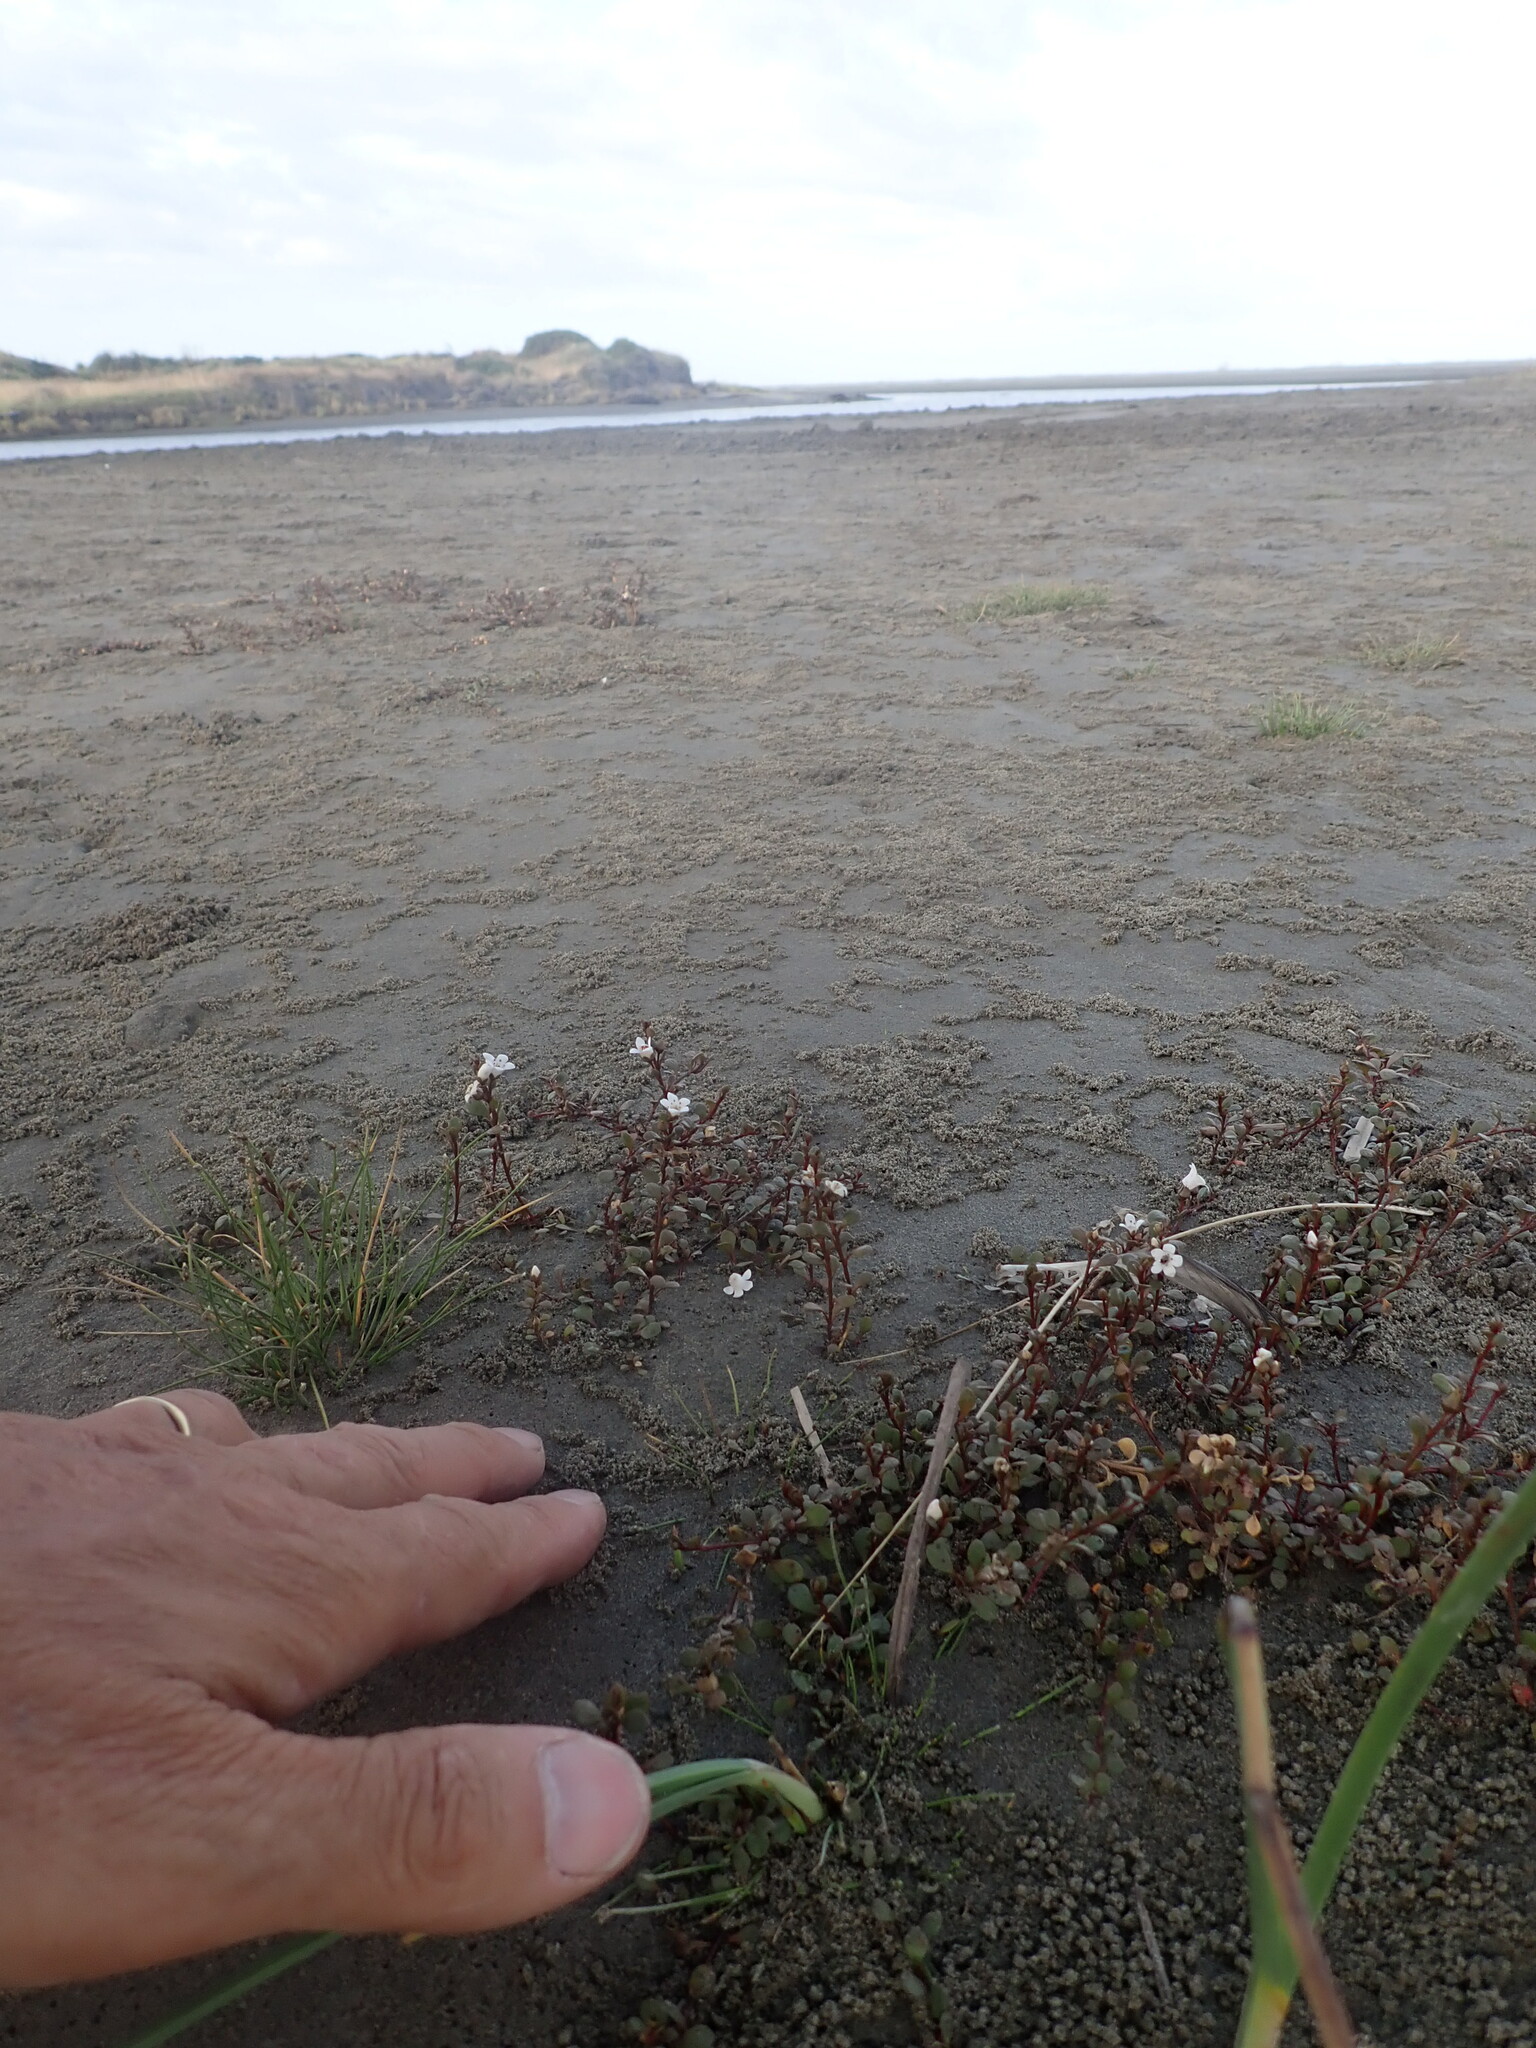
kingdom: Plantae
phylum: Tracheophyta
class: Magnoliopsida
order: Ericales
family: Primulaceae
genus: Samolus
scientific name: Samolus repens
